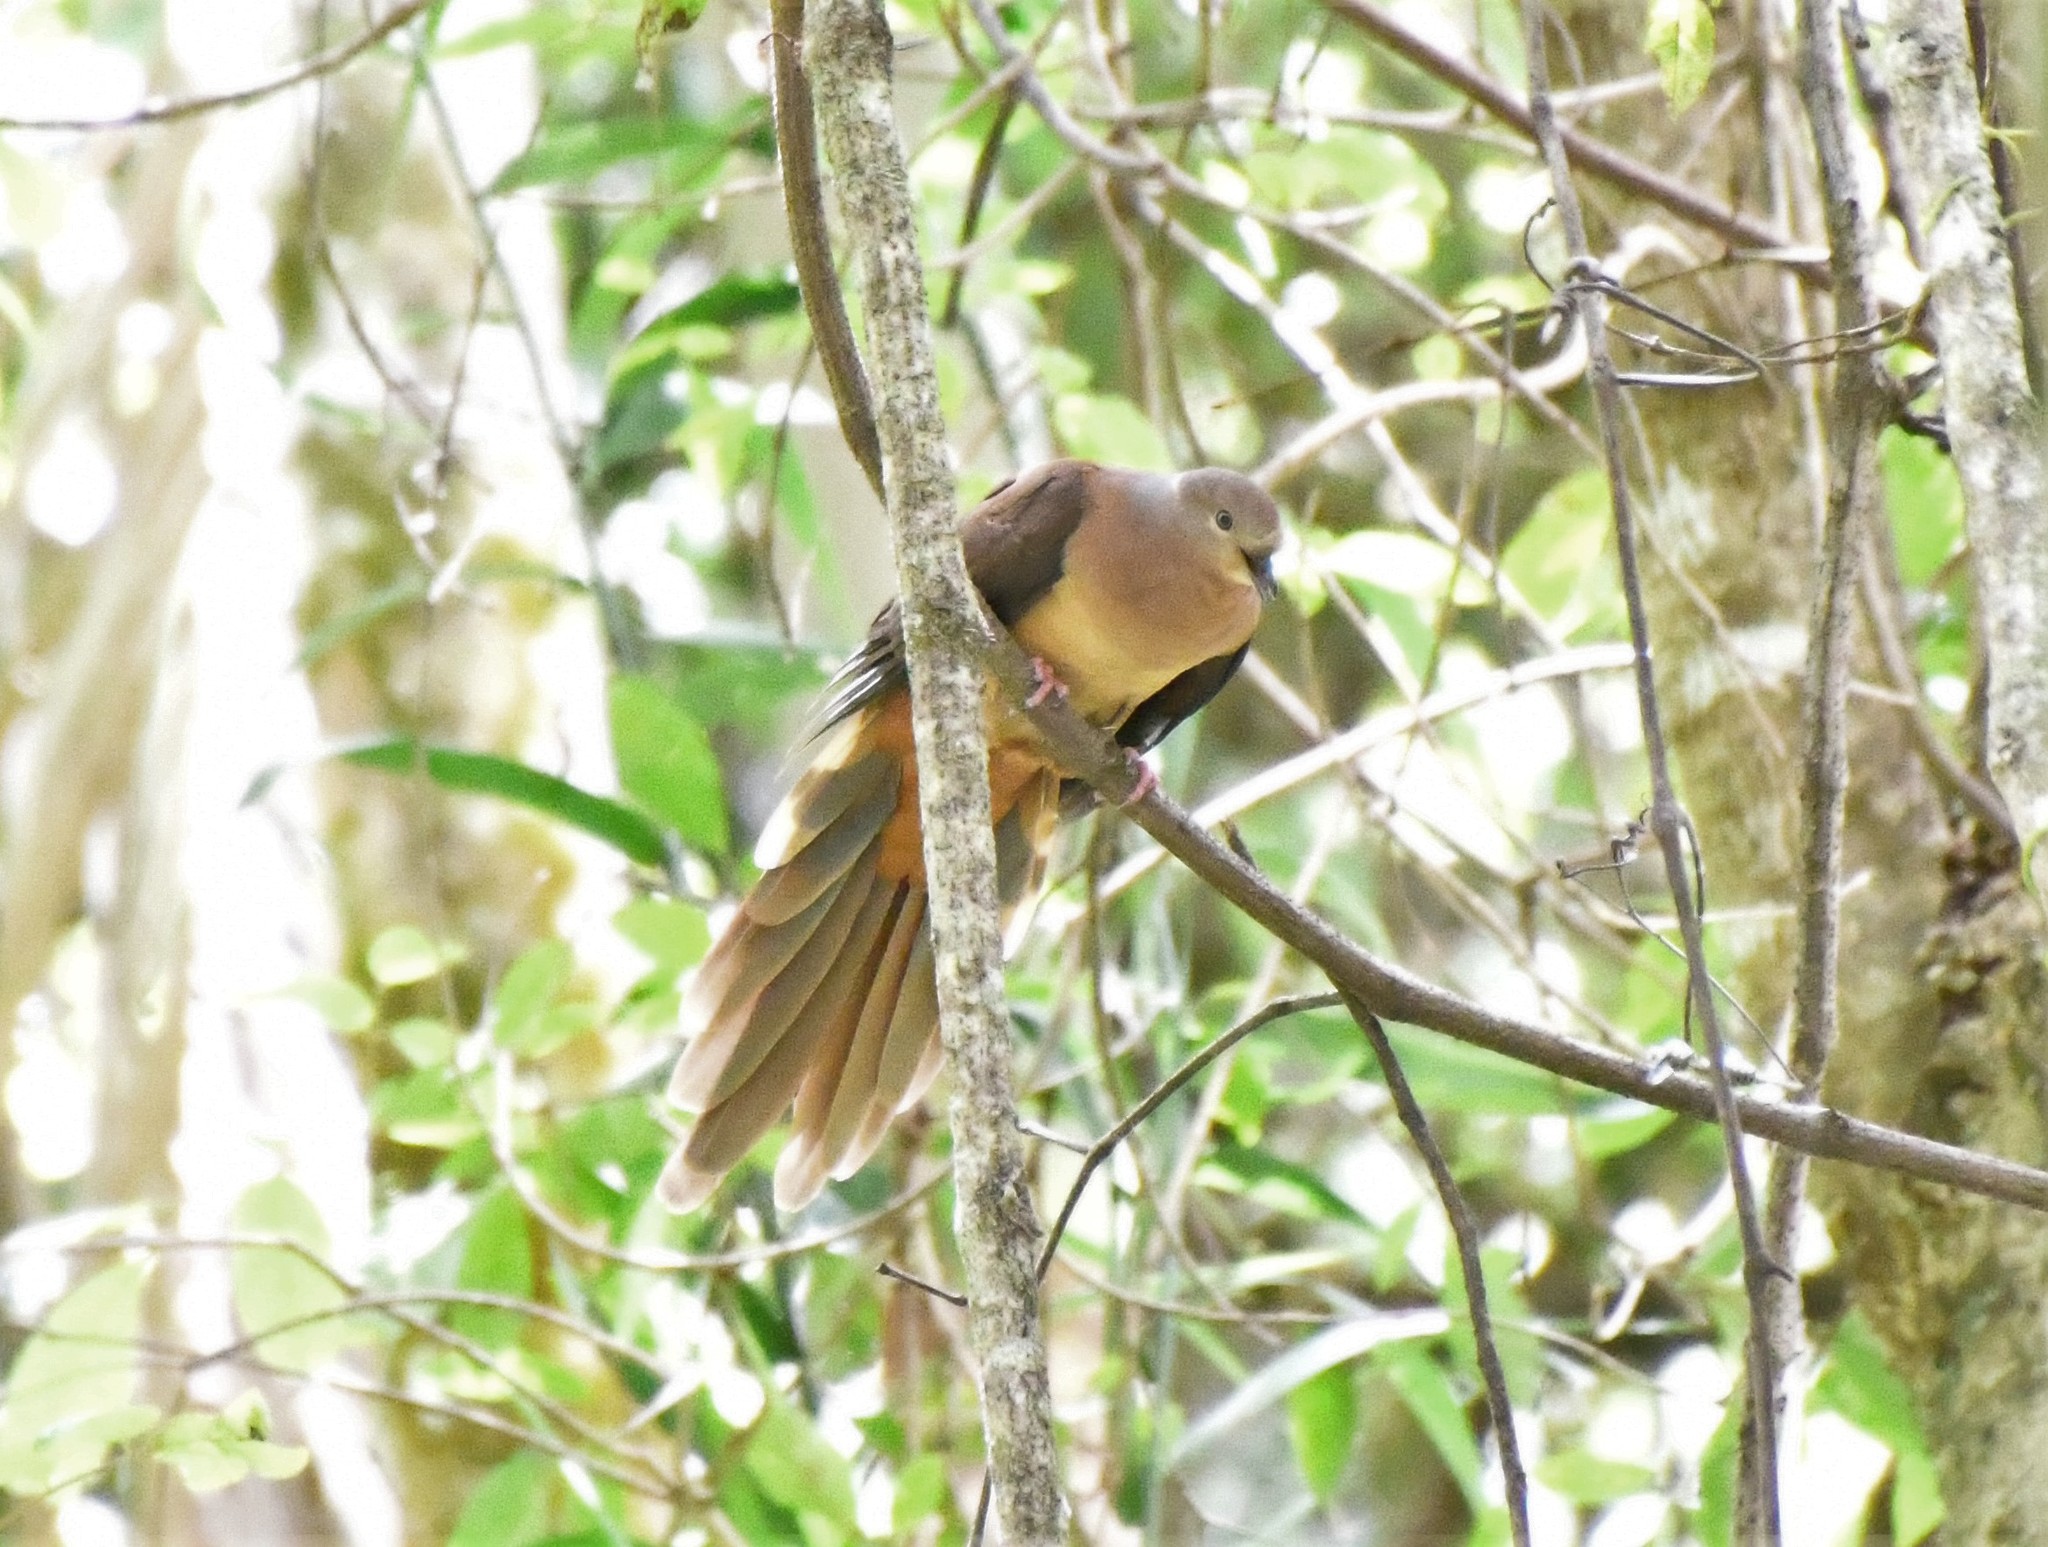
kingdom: Animalia
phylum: Chordata
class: Aves
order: Columbiformes
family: Columbidae
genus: Macropygia
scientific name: Macropygia phasianella
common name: Brown cuckoo-dove
